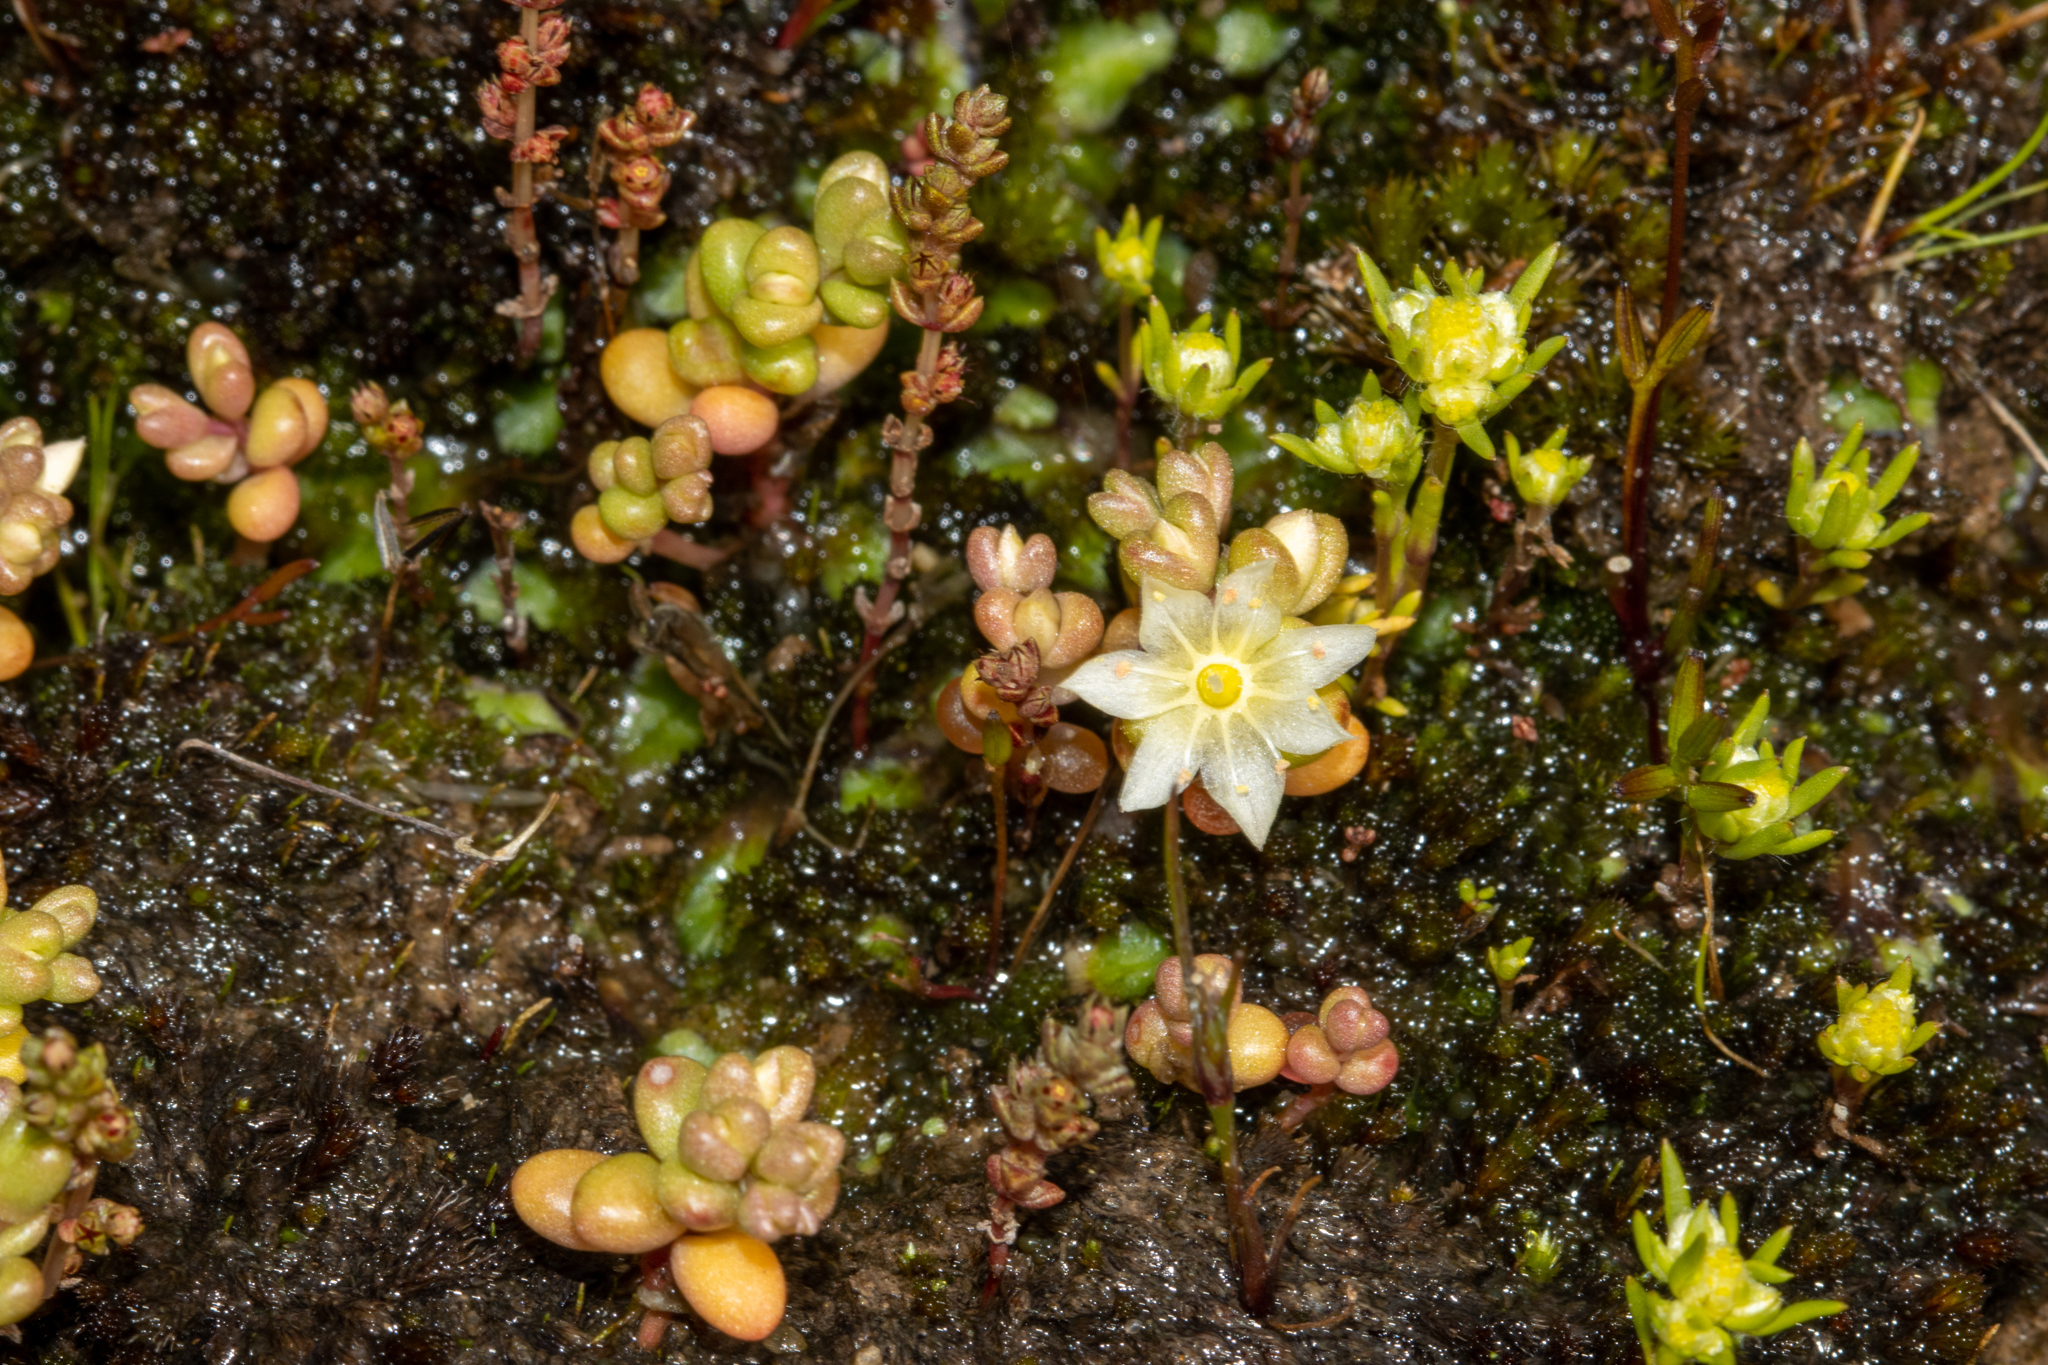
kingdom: Plantae
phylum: Tracheophyta
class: Magnoliopsida
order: Caryophyllales
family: Montiaceae
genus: Rumicastrum
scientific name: Rumicastrum granuliferum
